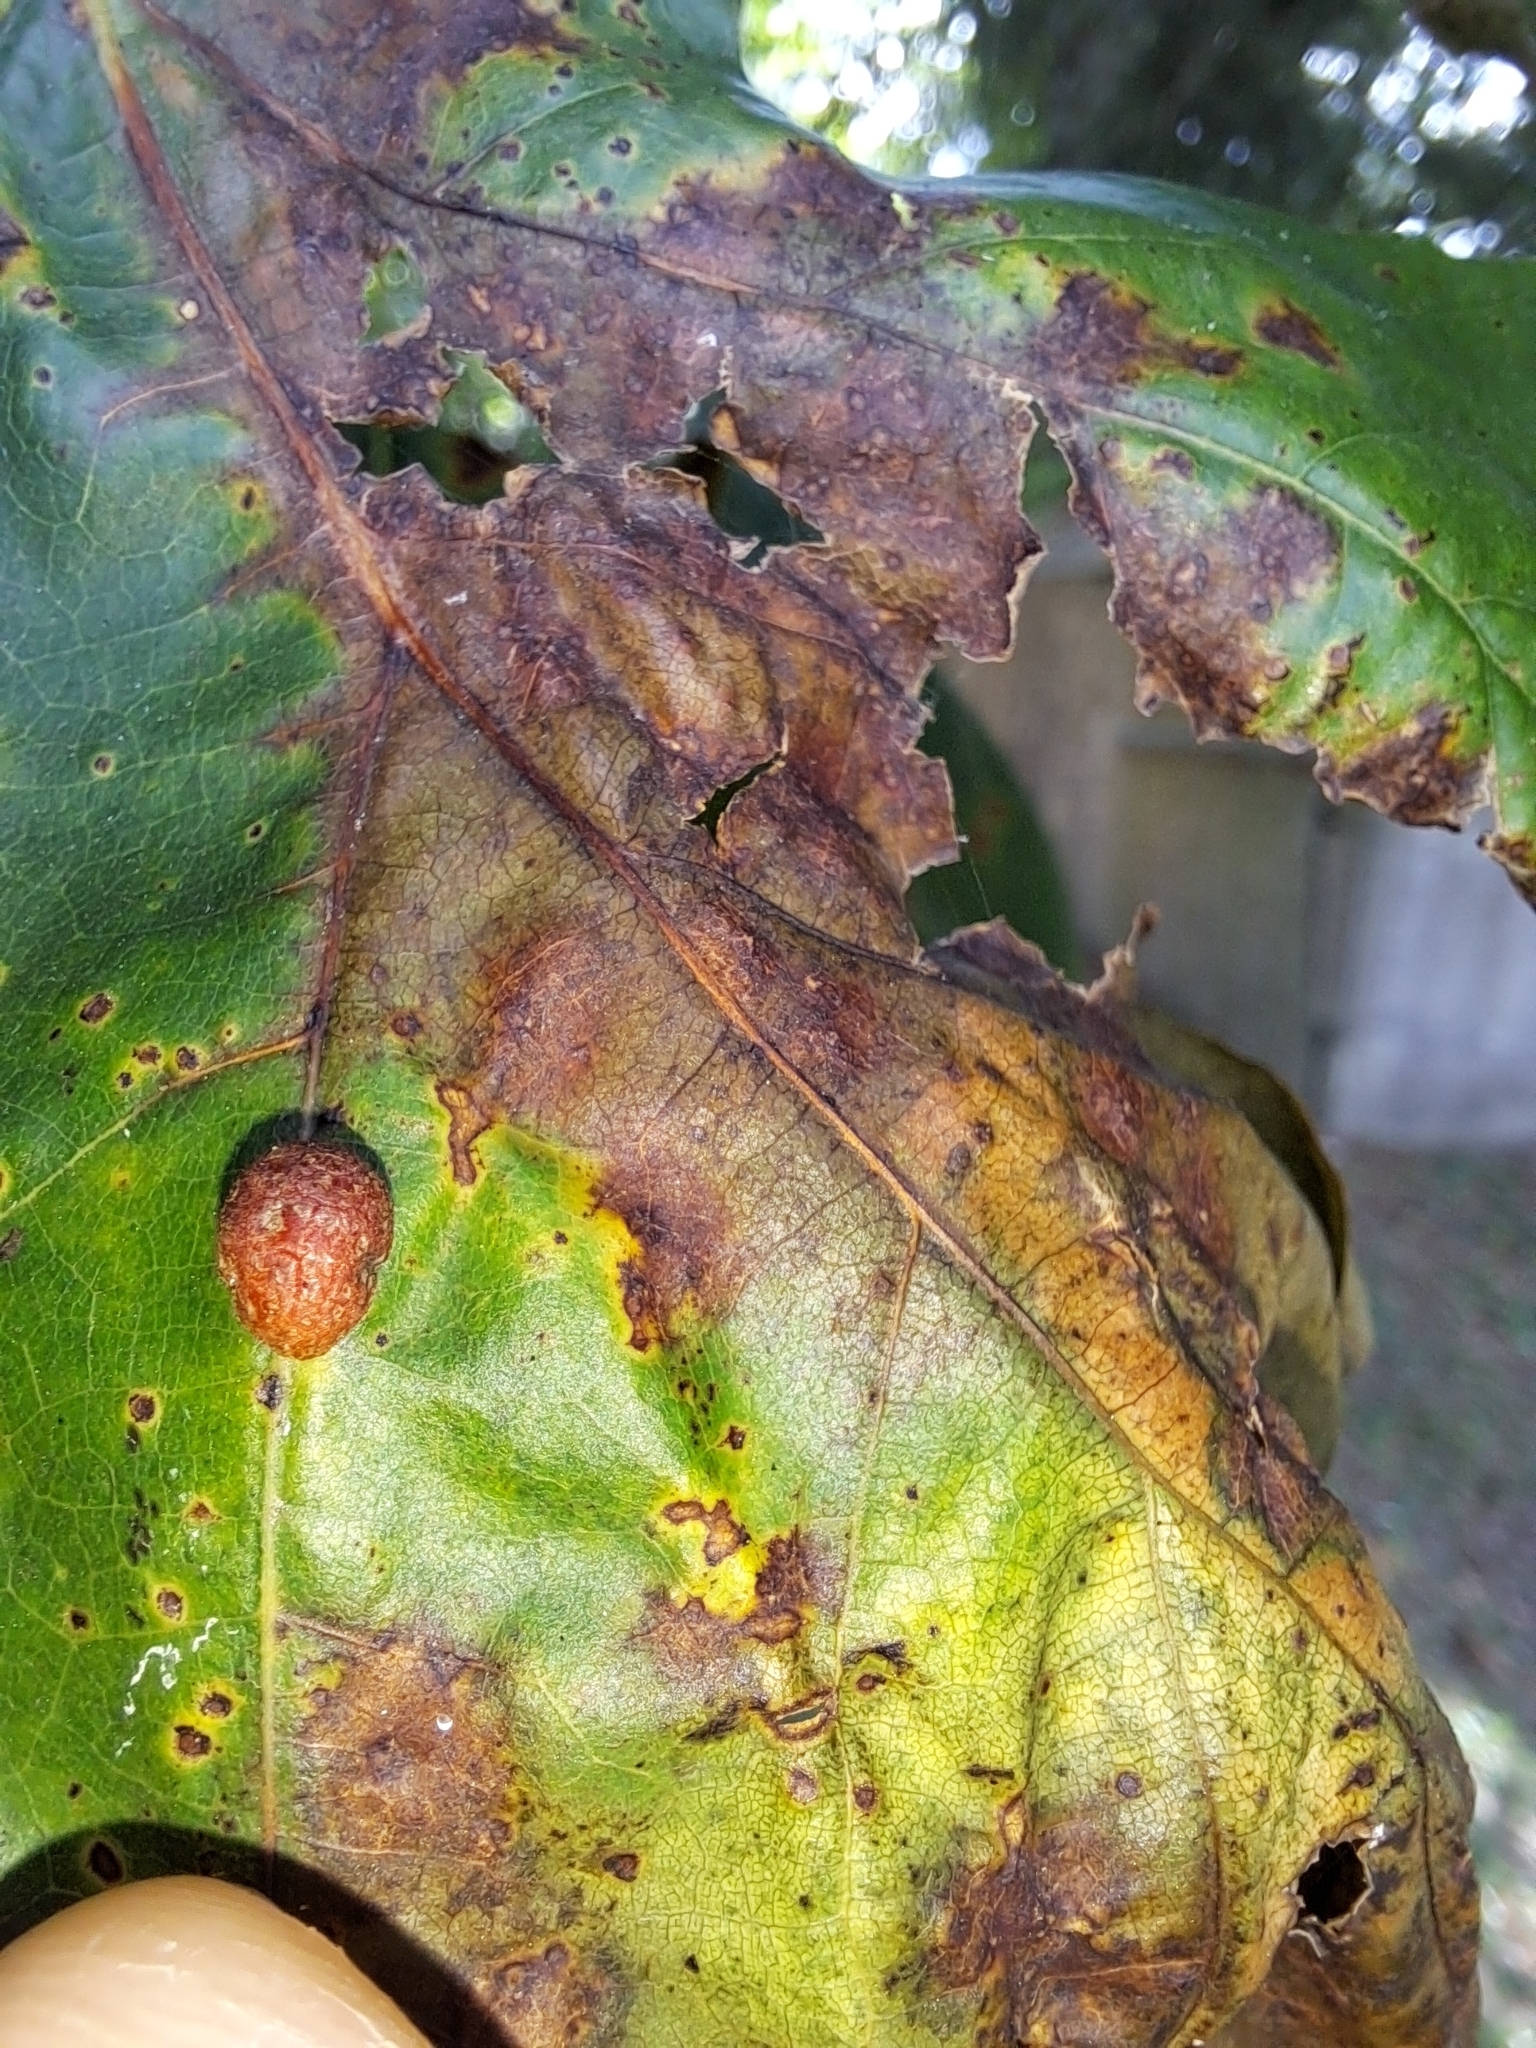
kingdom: Animalia
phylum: Arthropoda
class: Insecta
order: Diptera
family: Cecidomyiidae
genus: Polystepha
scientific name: Polystepha pilulae
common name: Oak leaf gall midge
